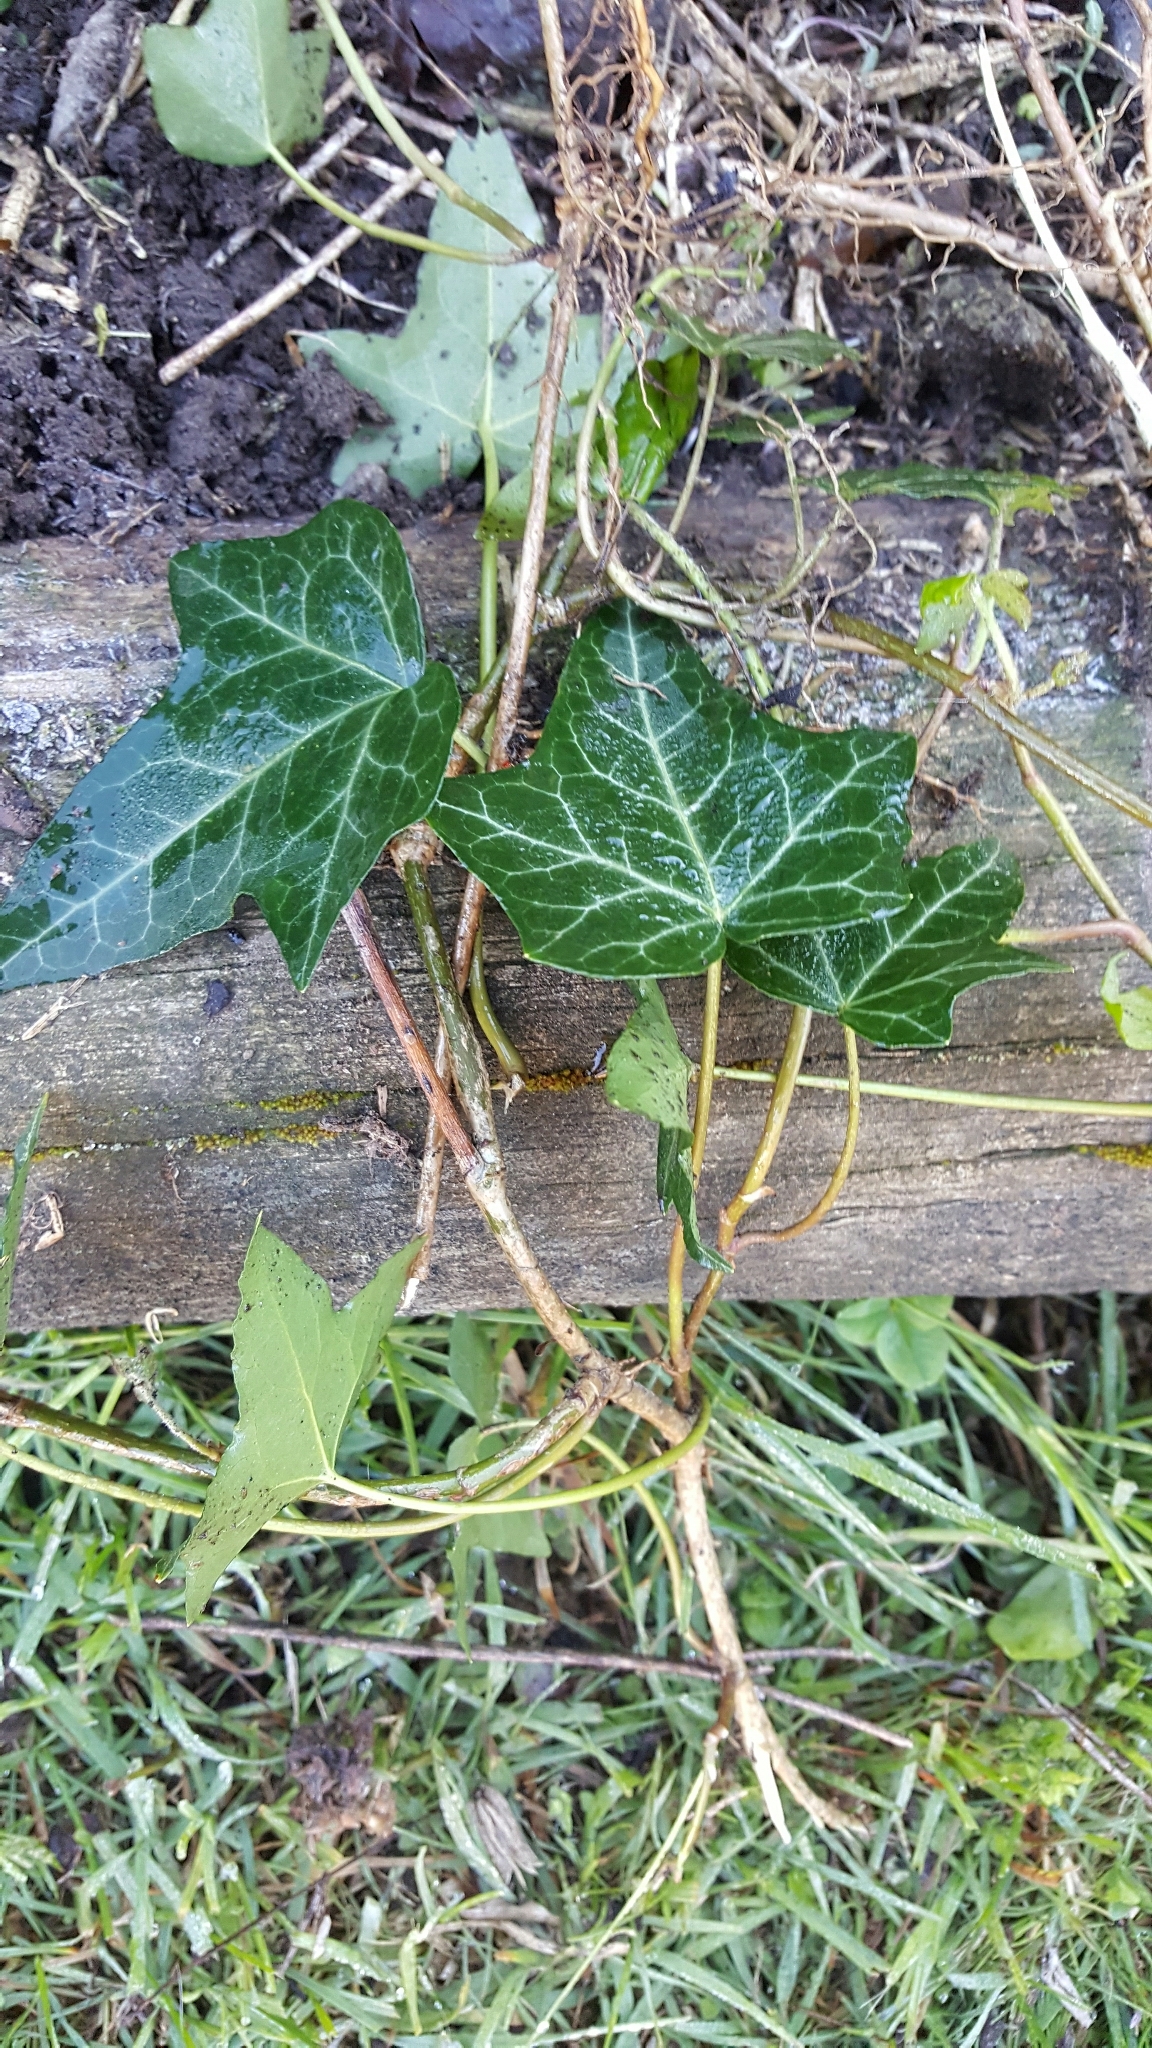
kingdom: Plantae
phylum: Tracheophyta
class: Magnoliopsida
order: Apiales
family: Araliaceae
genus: Hedera
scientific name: Hedera helix
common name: Ivy
